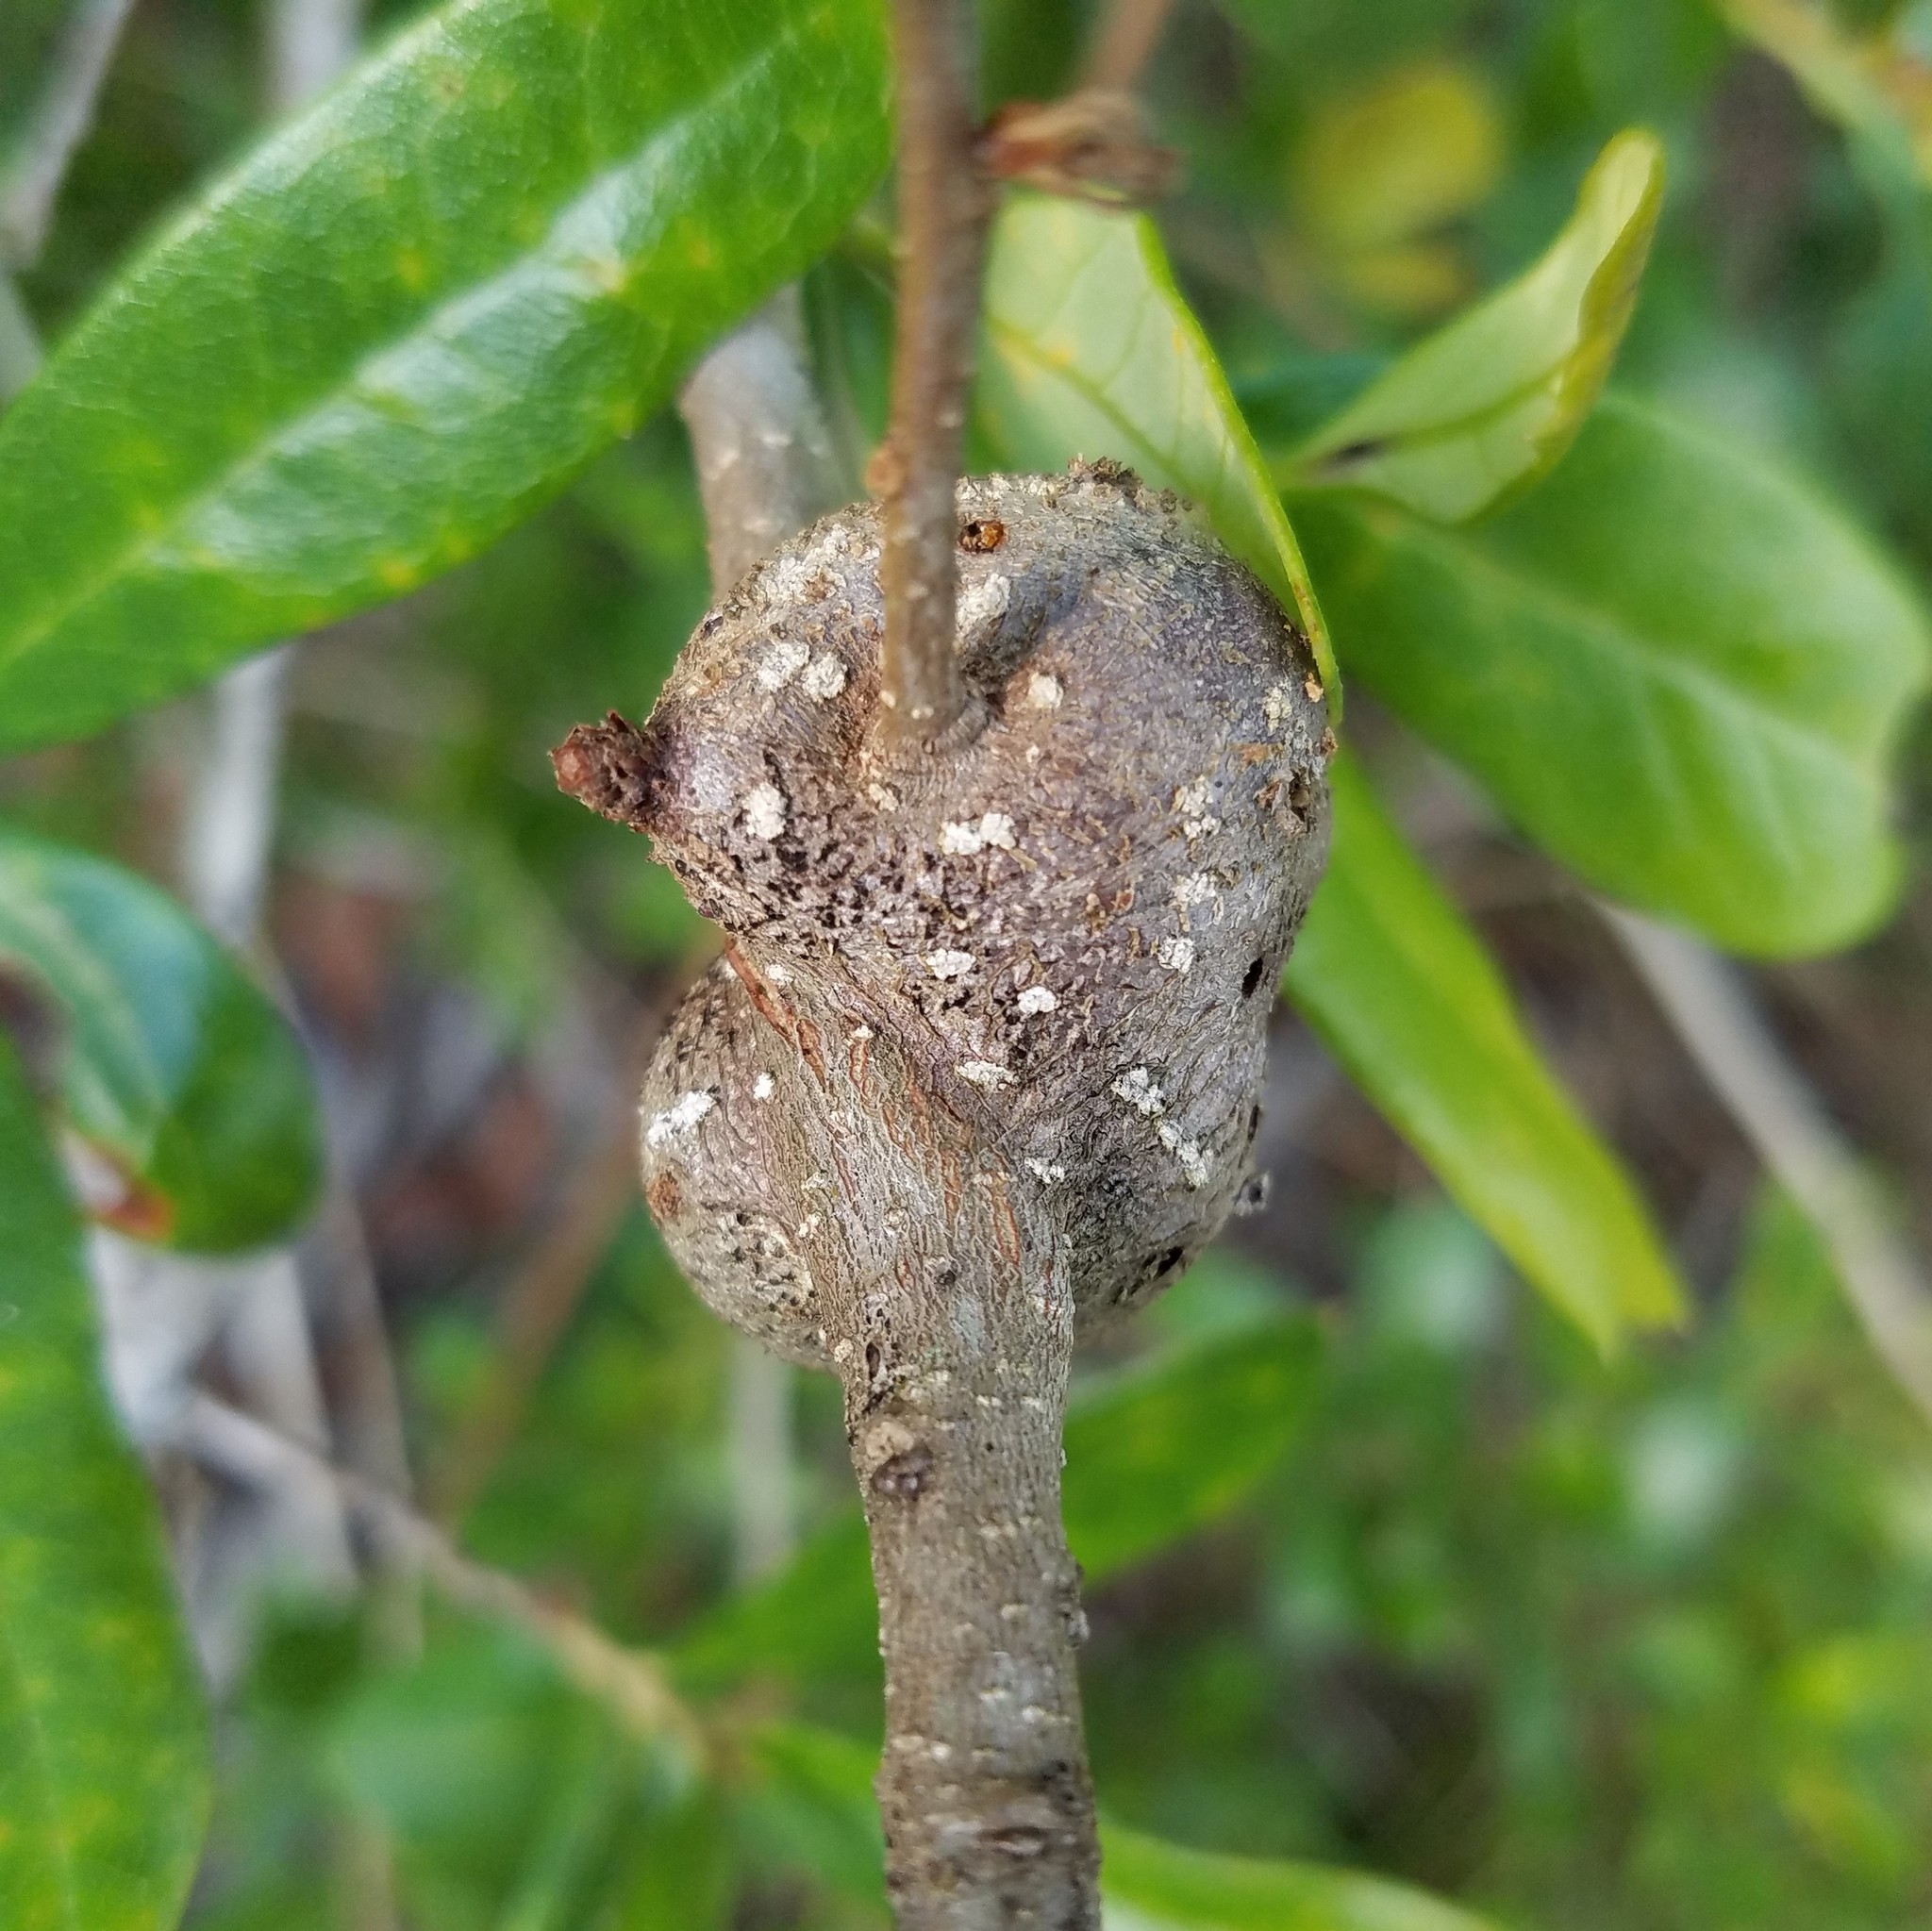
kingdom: Animalia
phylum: Arthropoda
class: Insecta
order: Hymenoptera
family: Cynipidae
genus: Callirhytis
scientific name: Callirhytis
